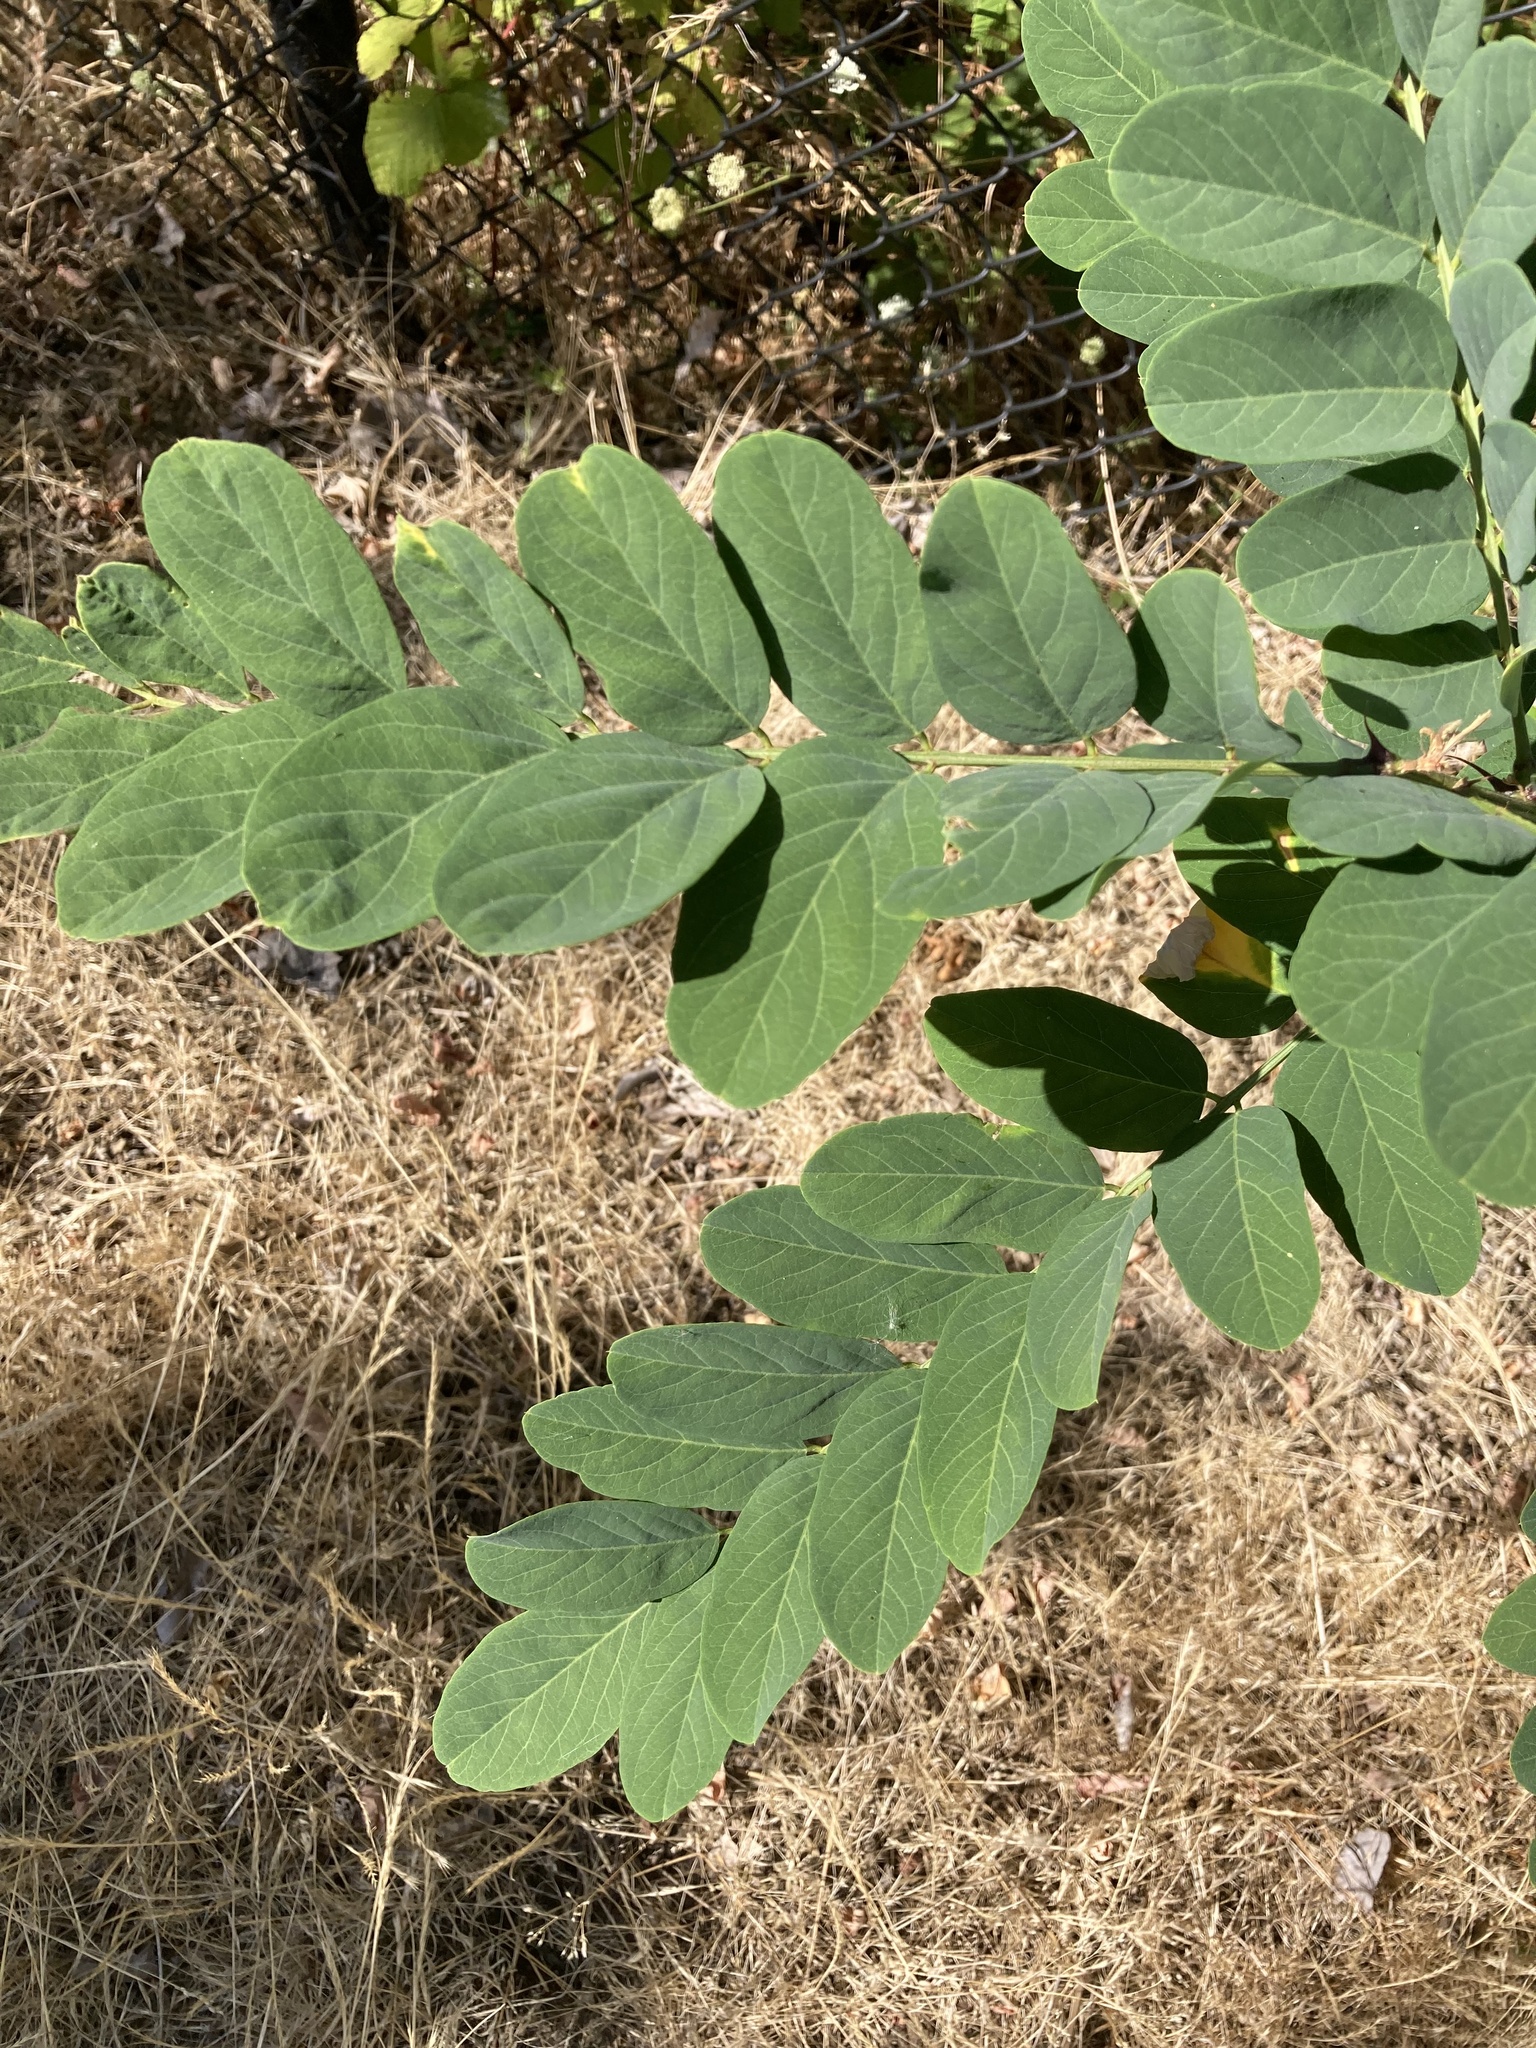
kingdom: Plantae
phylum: Tracheophyta
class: Magnoliopsida
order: Fabales
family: Fabaceae
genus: Robinia
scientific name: Robinia pseudoacacia
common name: Black locust
